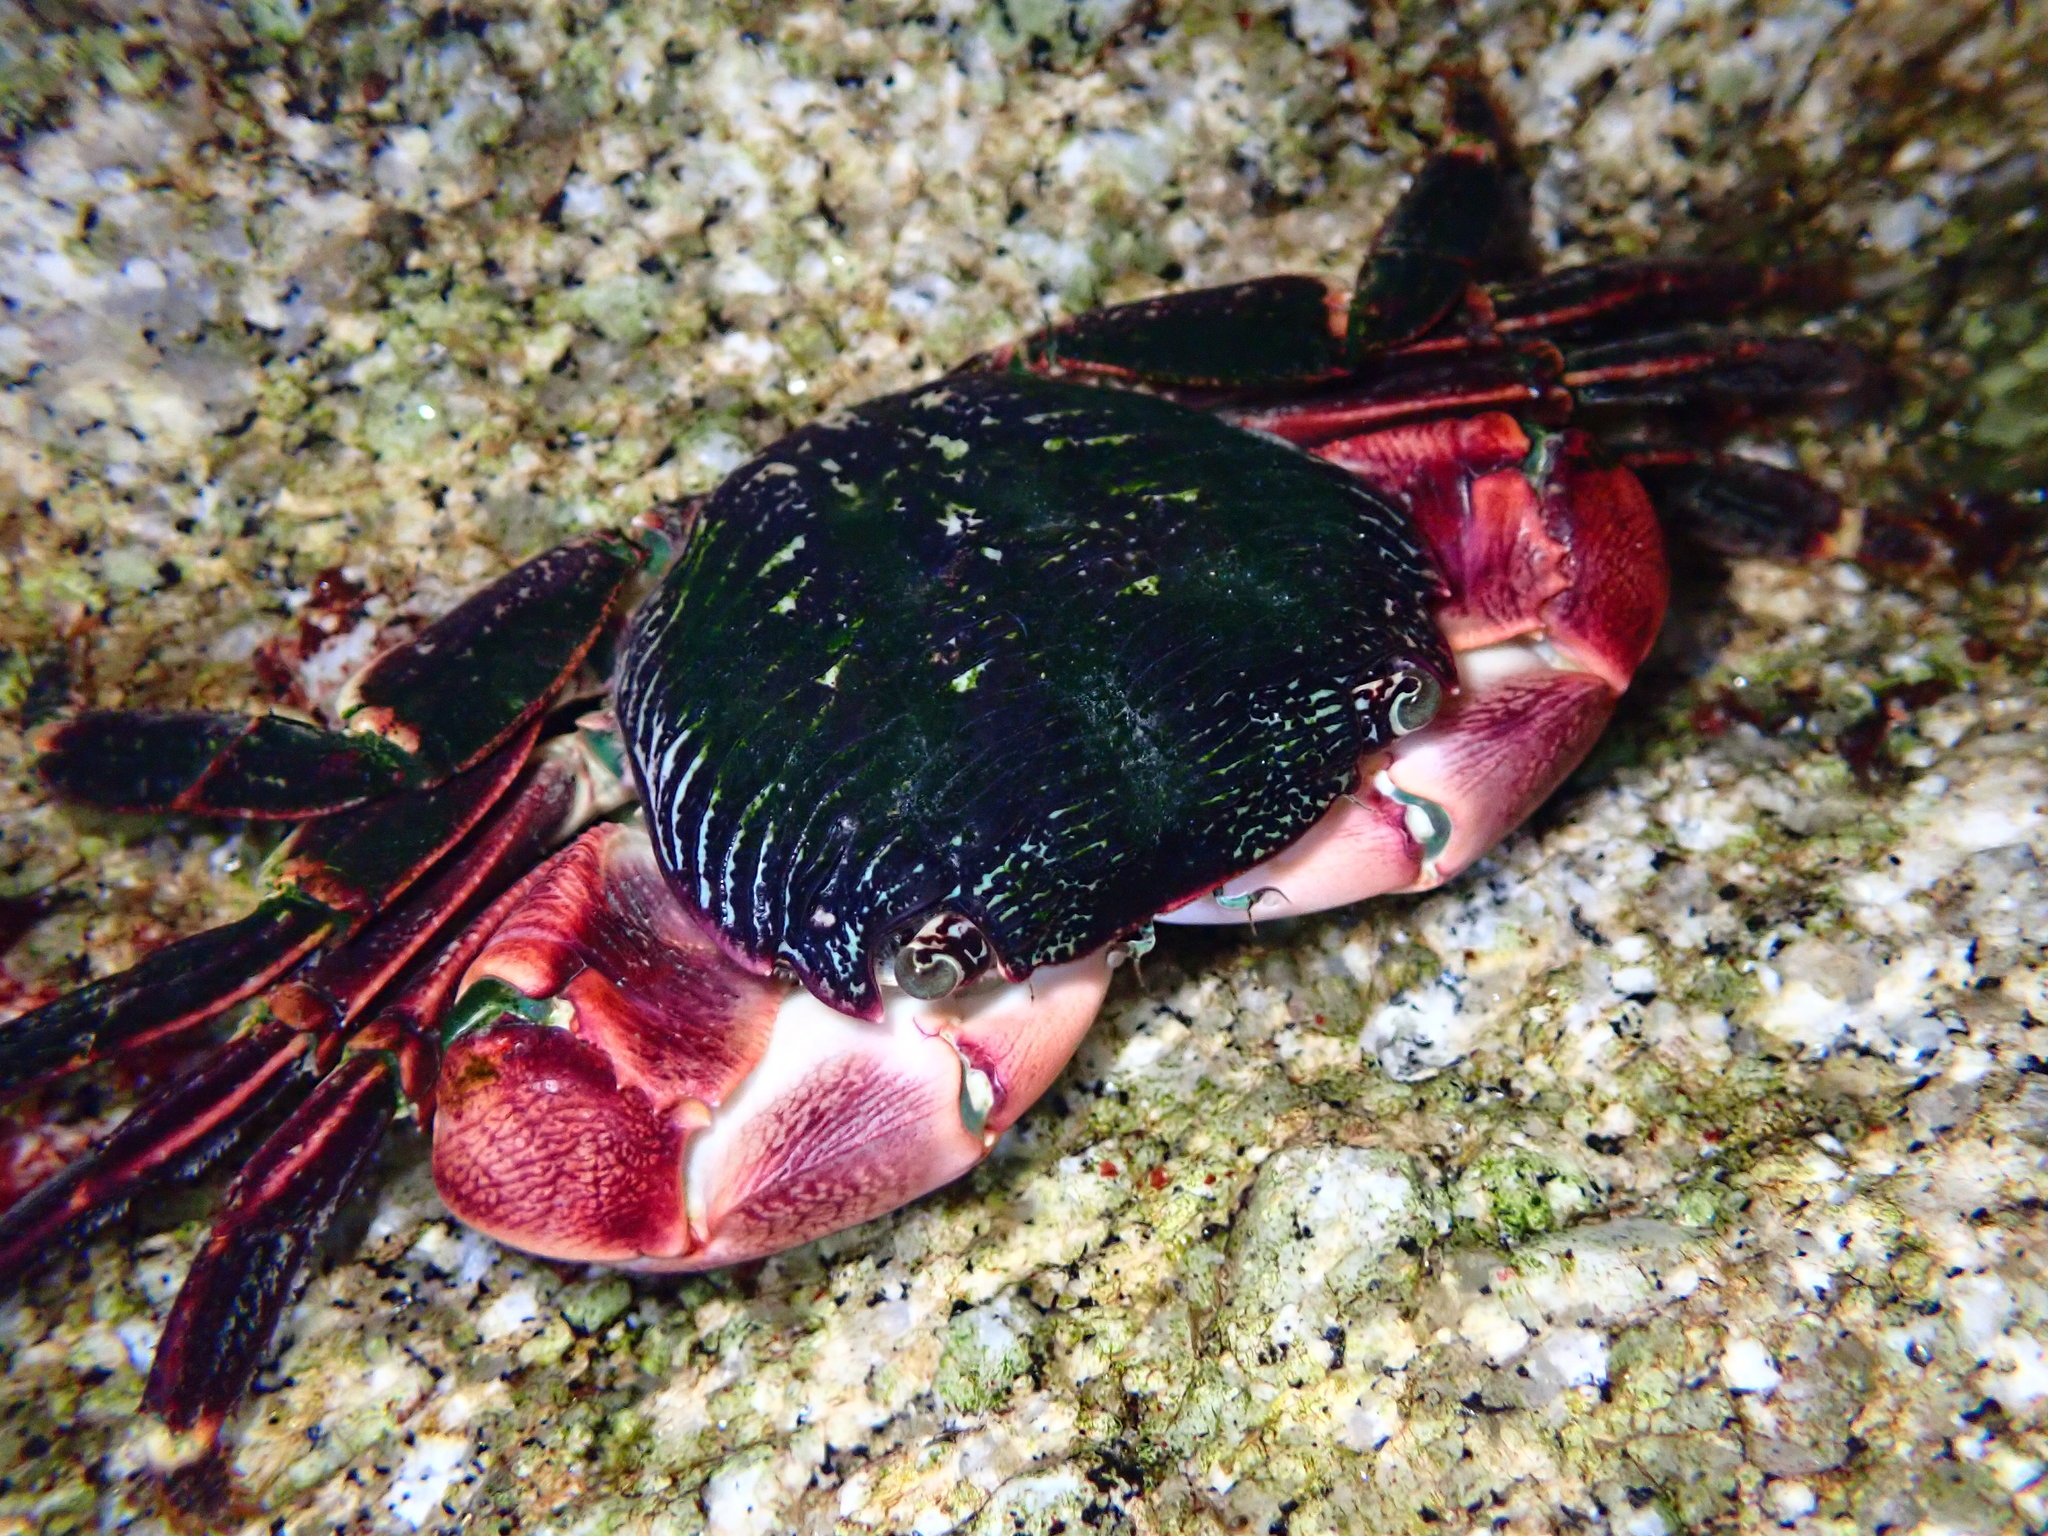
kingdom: Animalia
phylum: Arthropoda
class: Malacostraca
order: Decapoda
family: Grapsidae
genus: Pachygrapsus
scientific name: Pachygrapsus crassipes
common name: Striped shore crab
